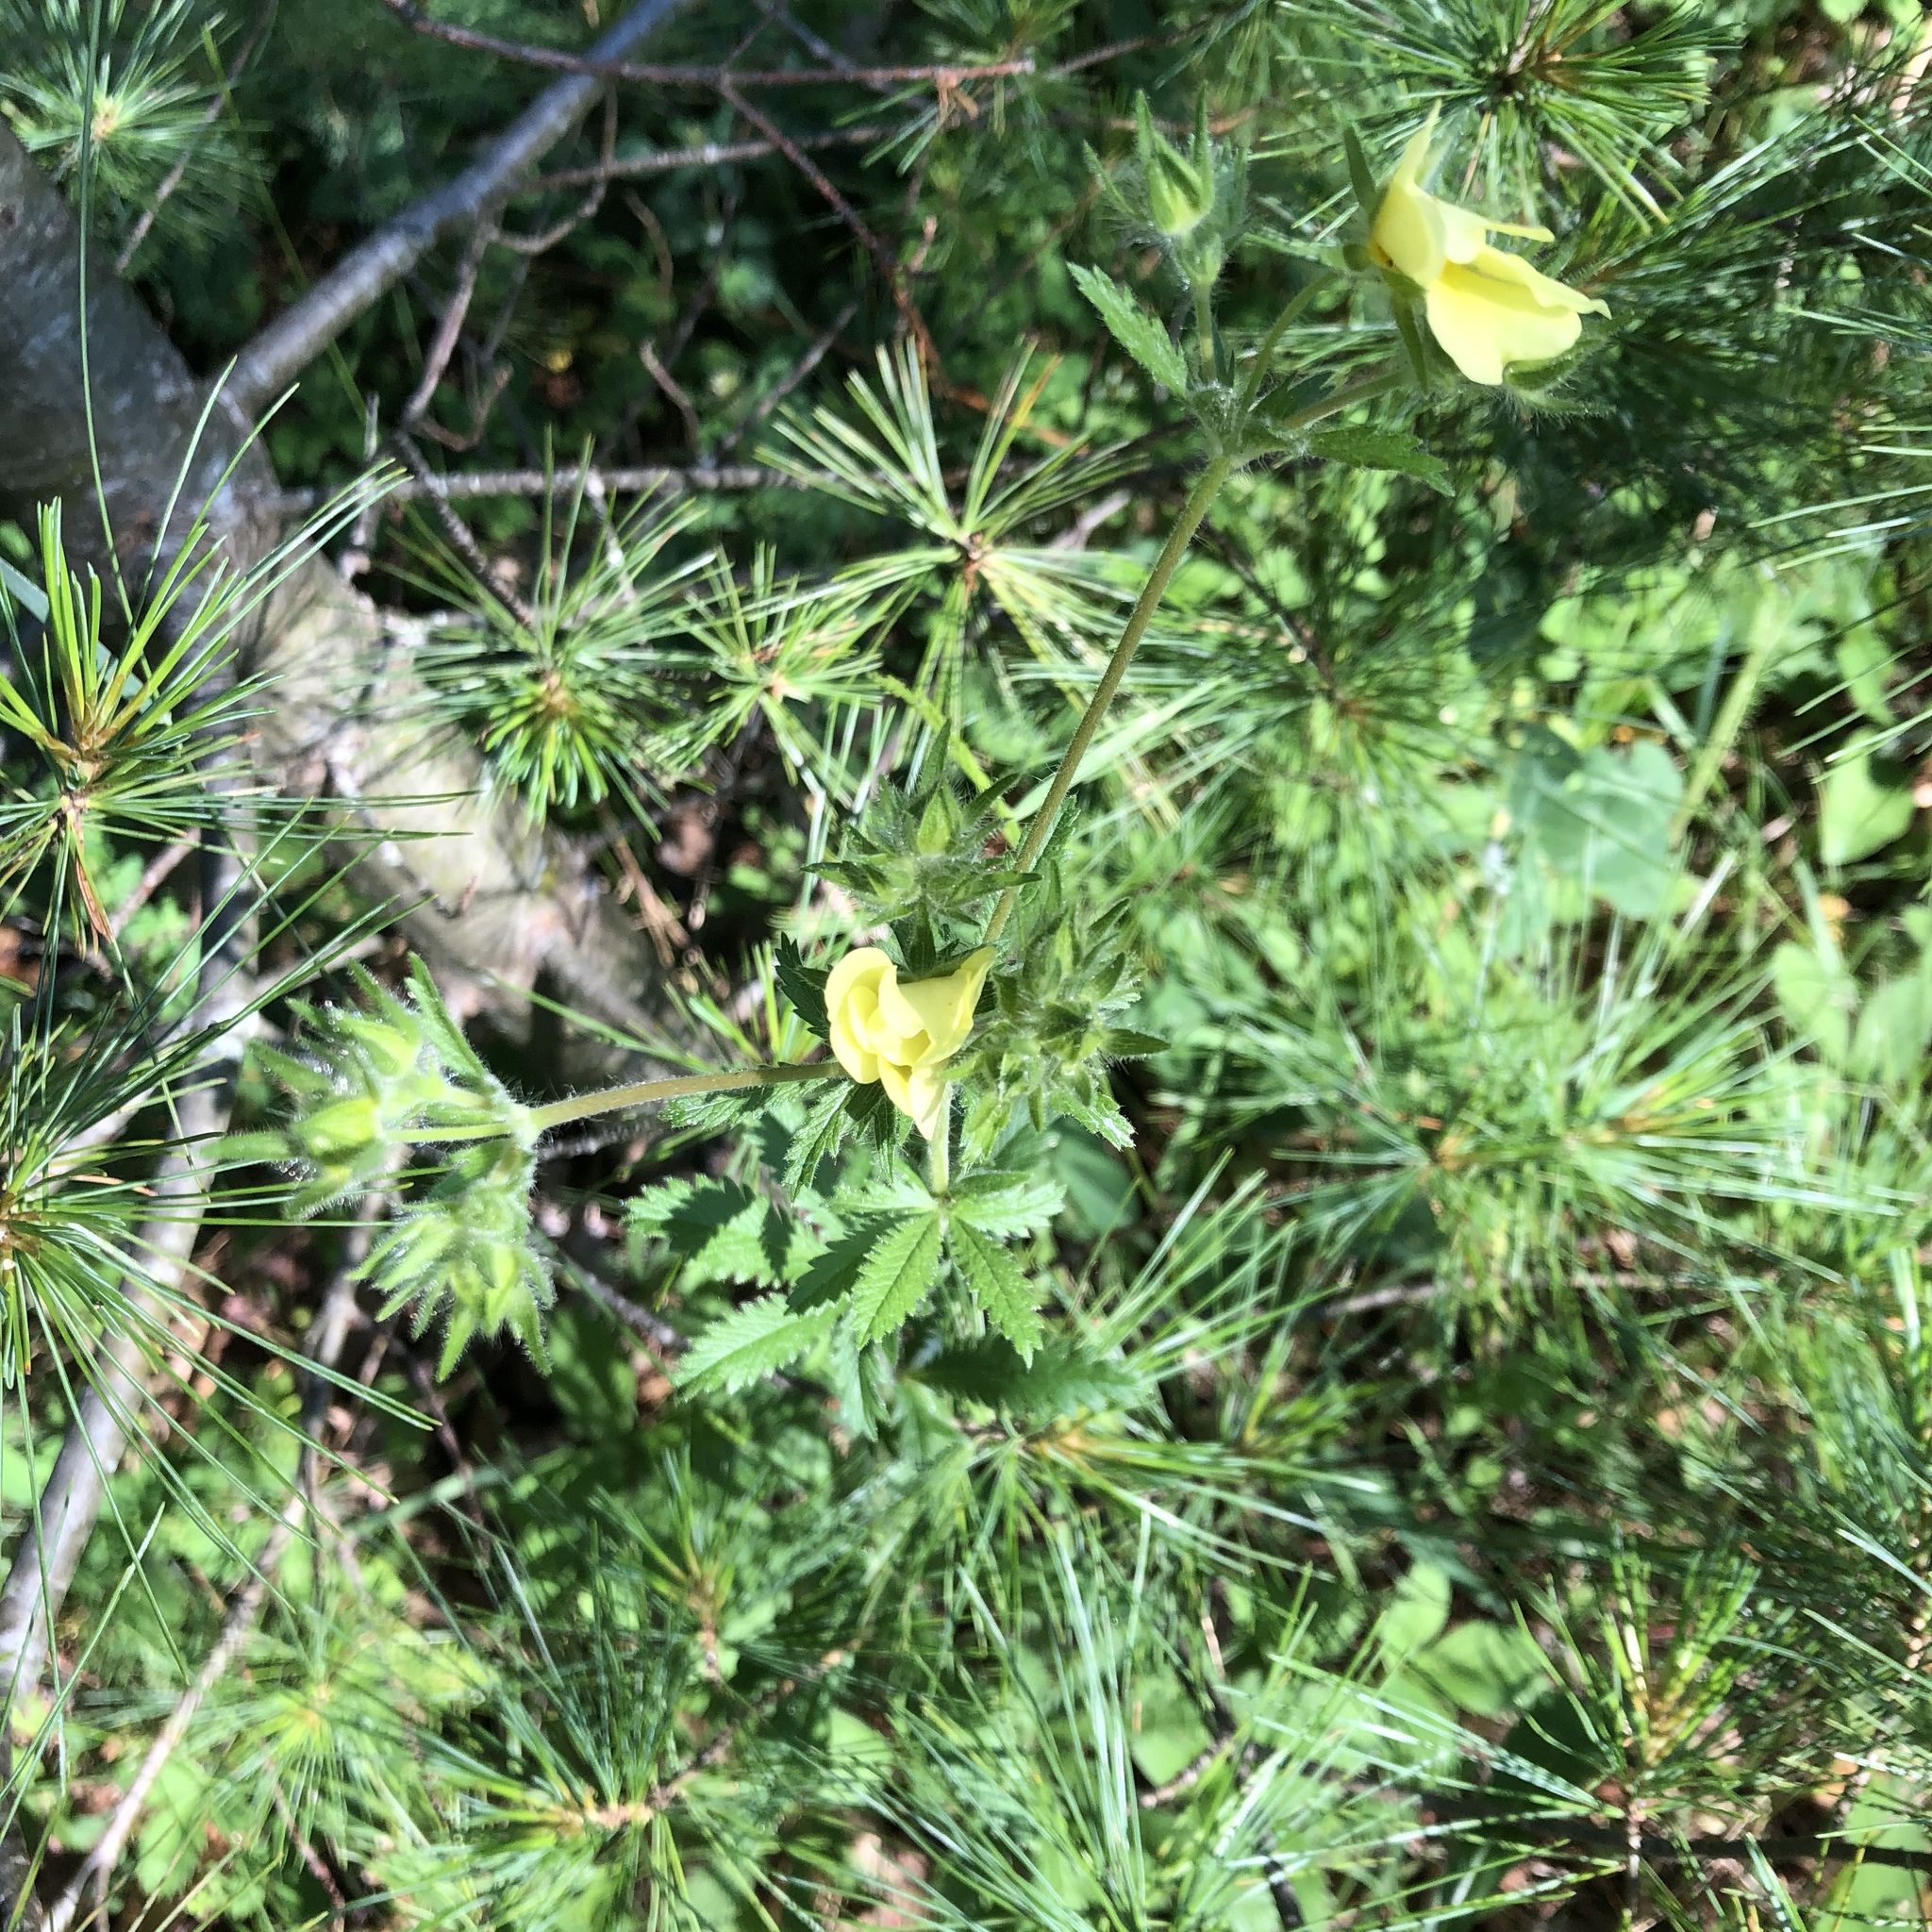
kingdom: Plantae
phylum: Tracheophyta
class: Magnoliopsida
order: Rosales
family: Rosaceae
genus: Potentilla
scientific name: Potentilla recta
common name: Sulphur cinquefoil
